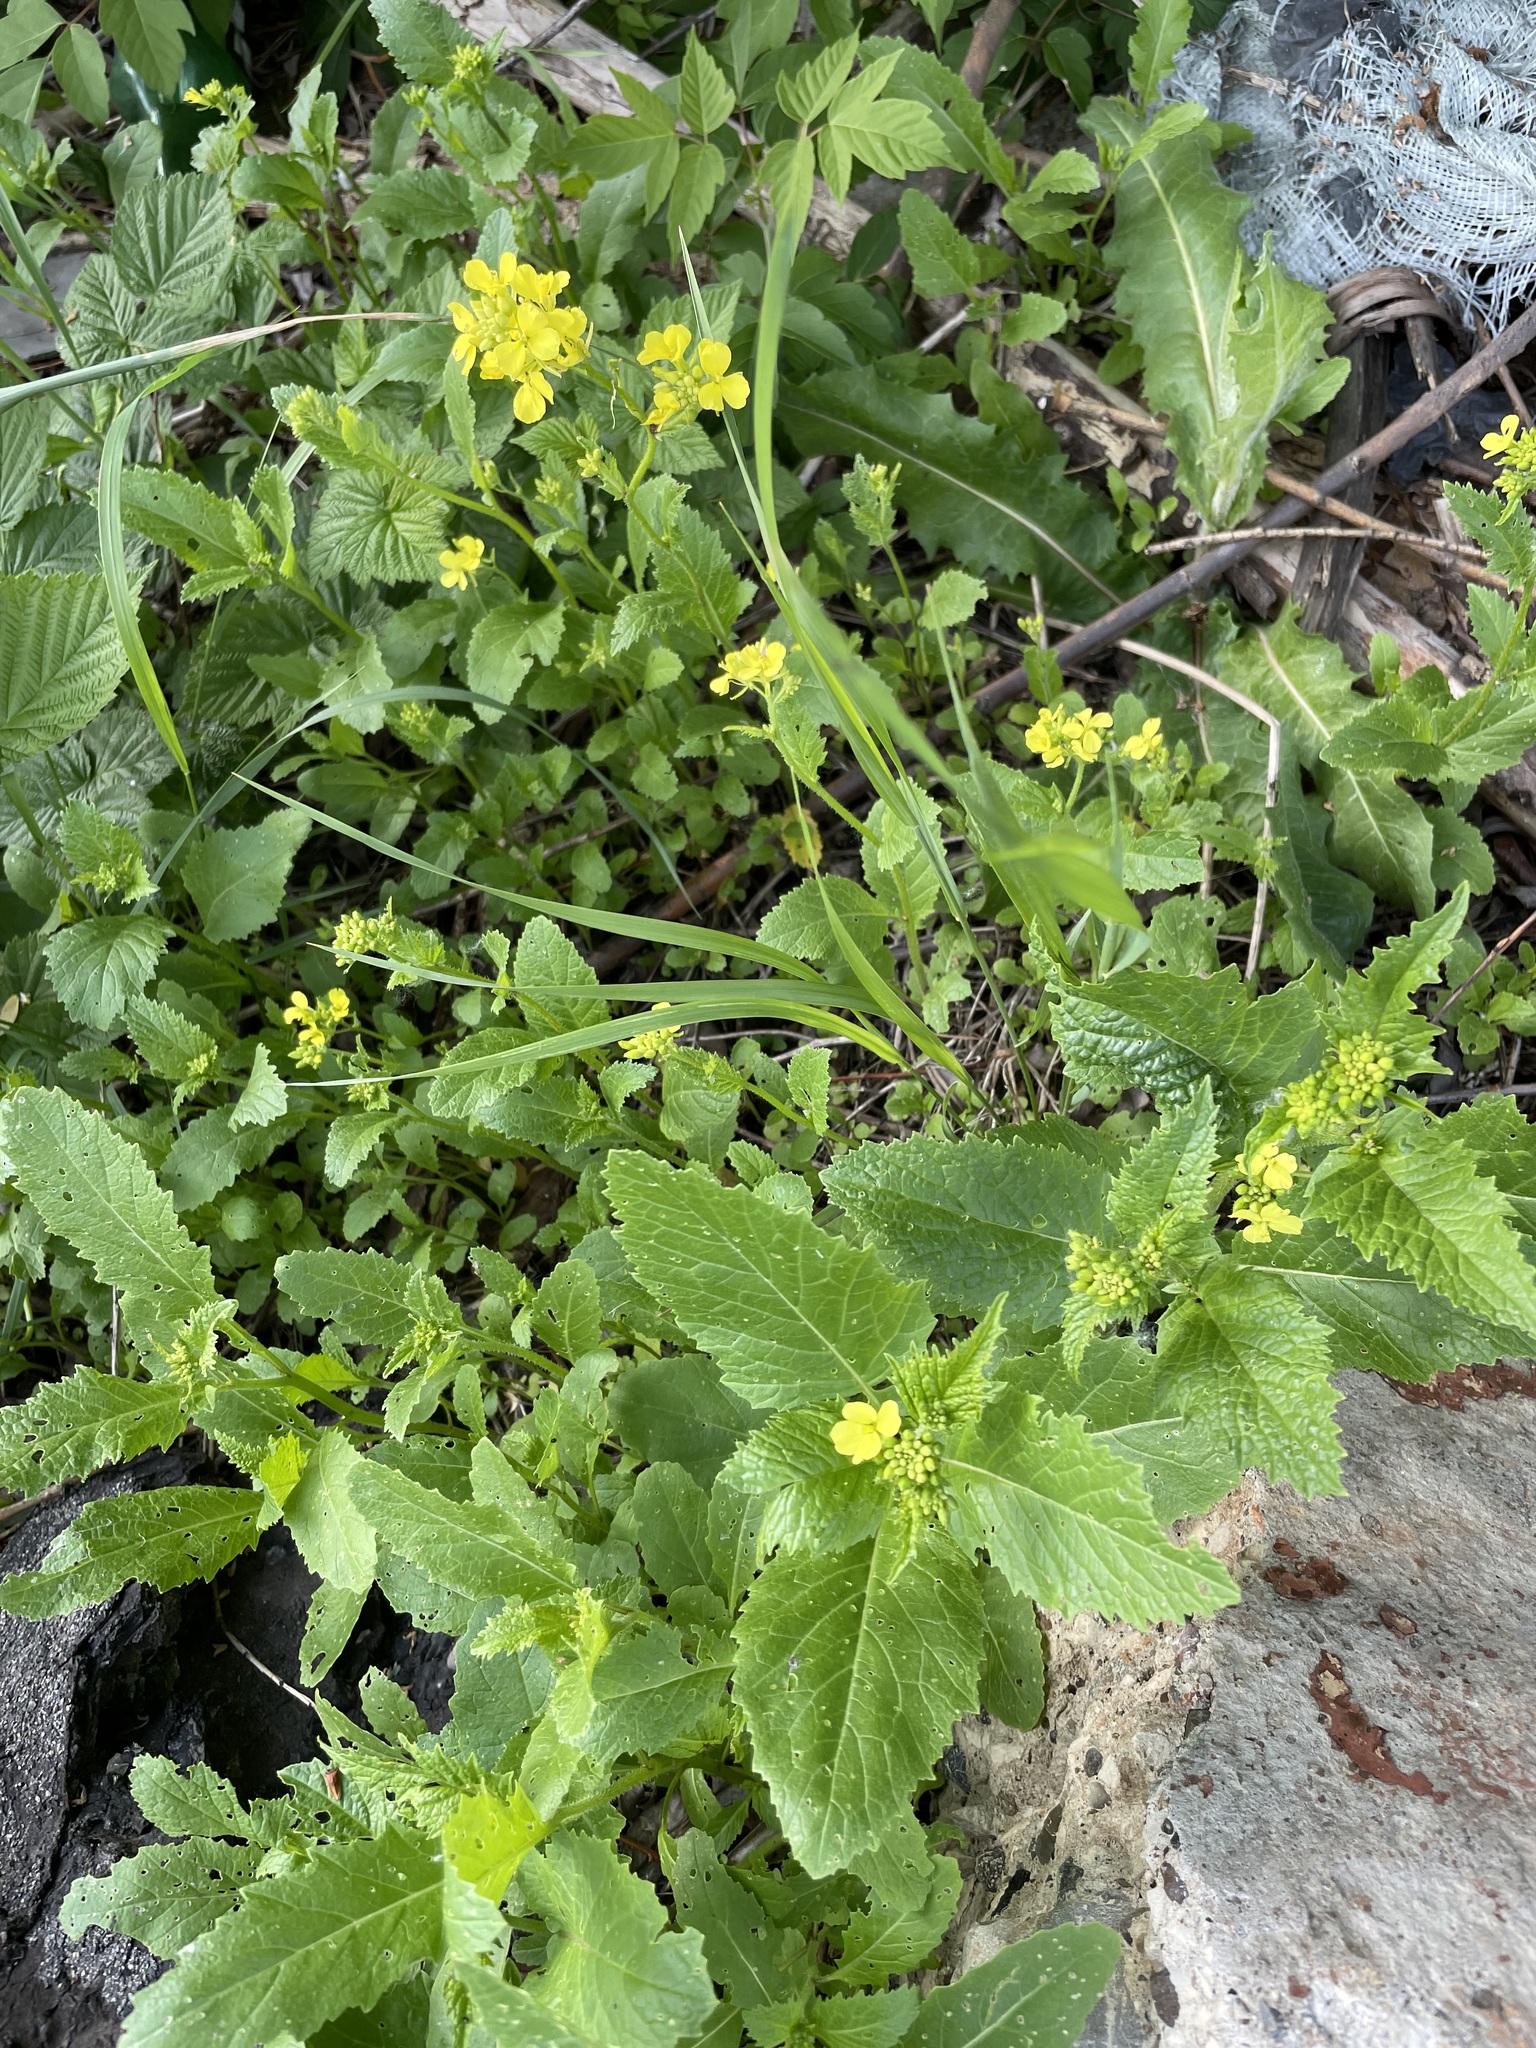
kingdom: Plantae
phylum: Tracheophyta
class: Magnoliopsida
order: Brassicales
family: Brassicaceae
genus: Sinapis
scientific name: Sinapis arvensis
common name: Charlock
